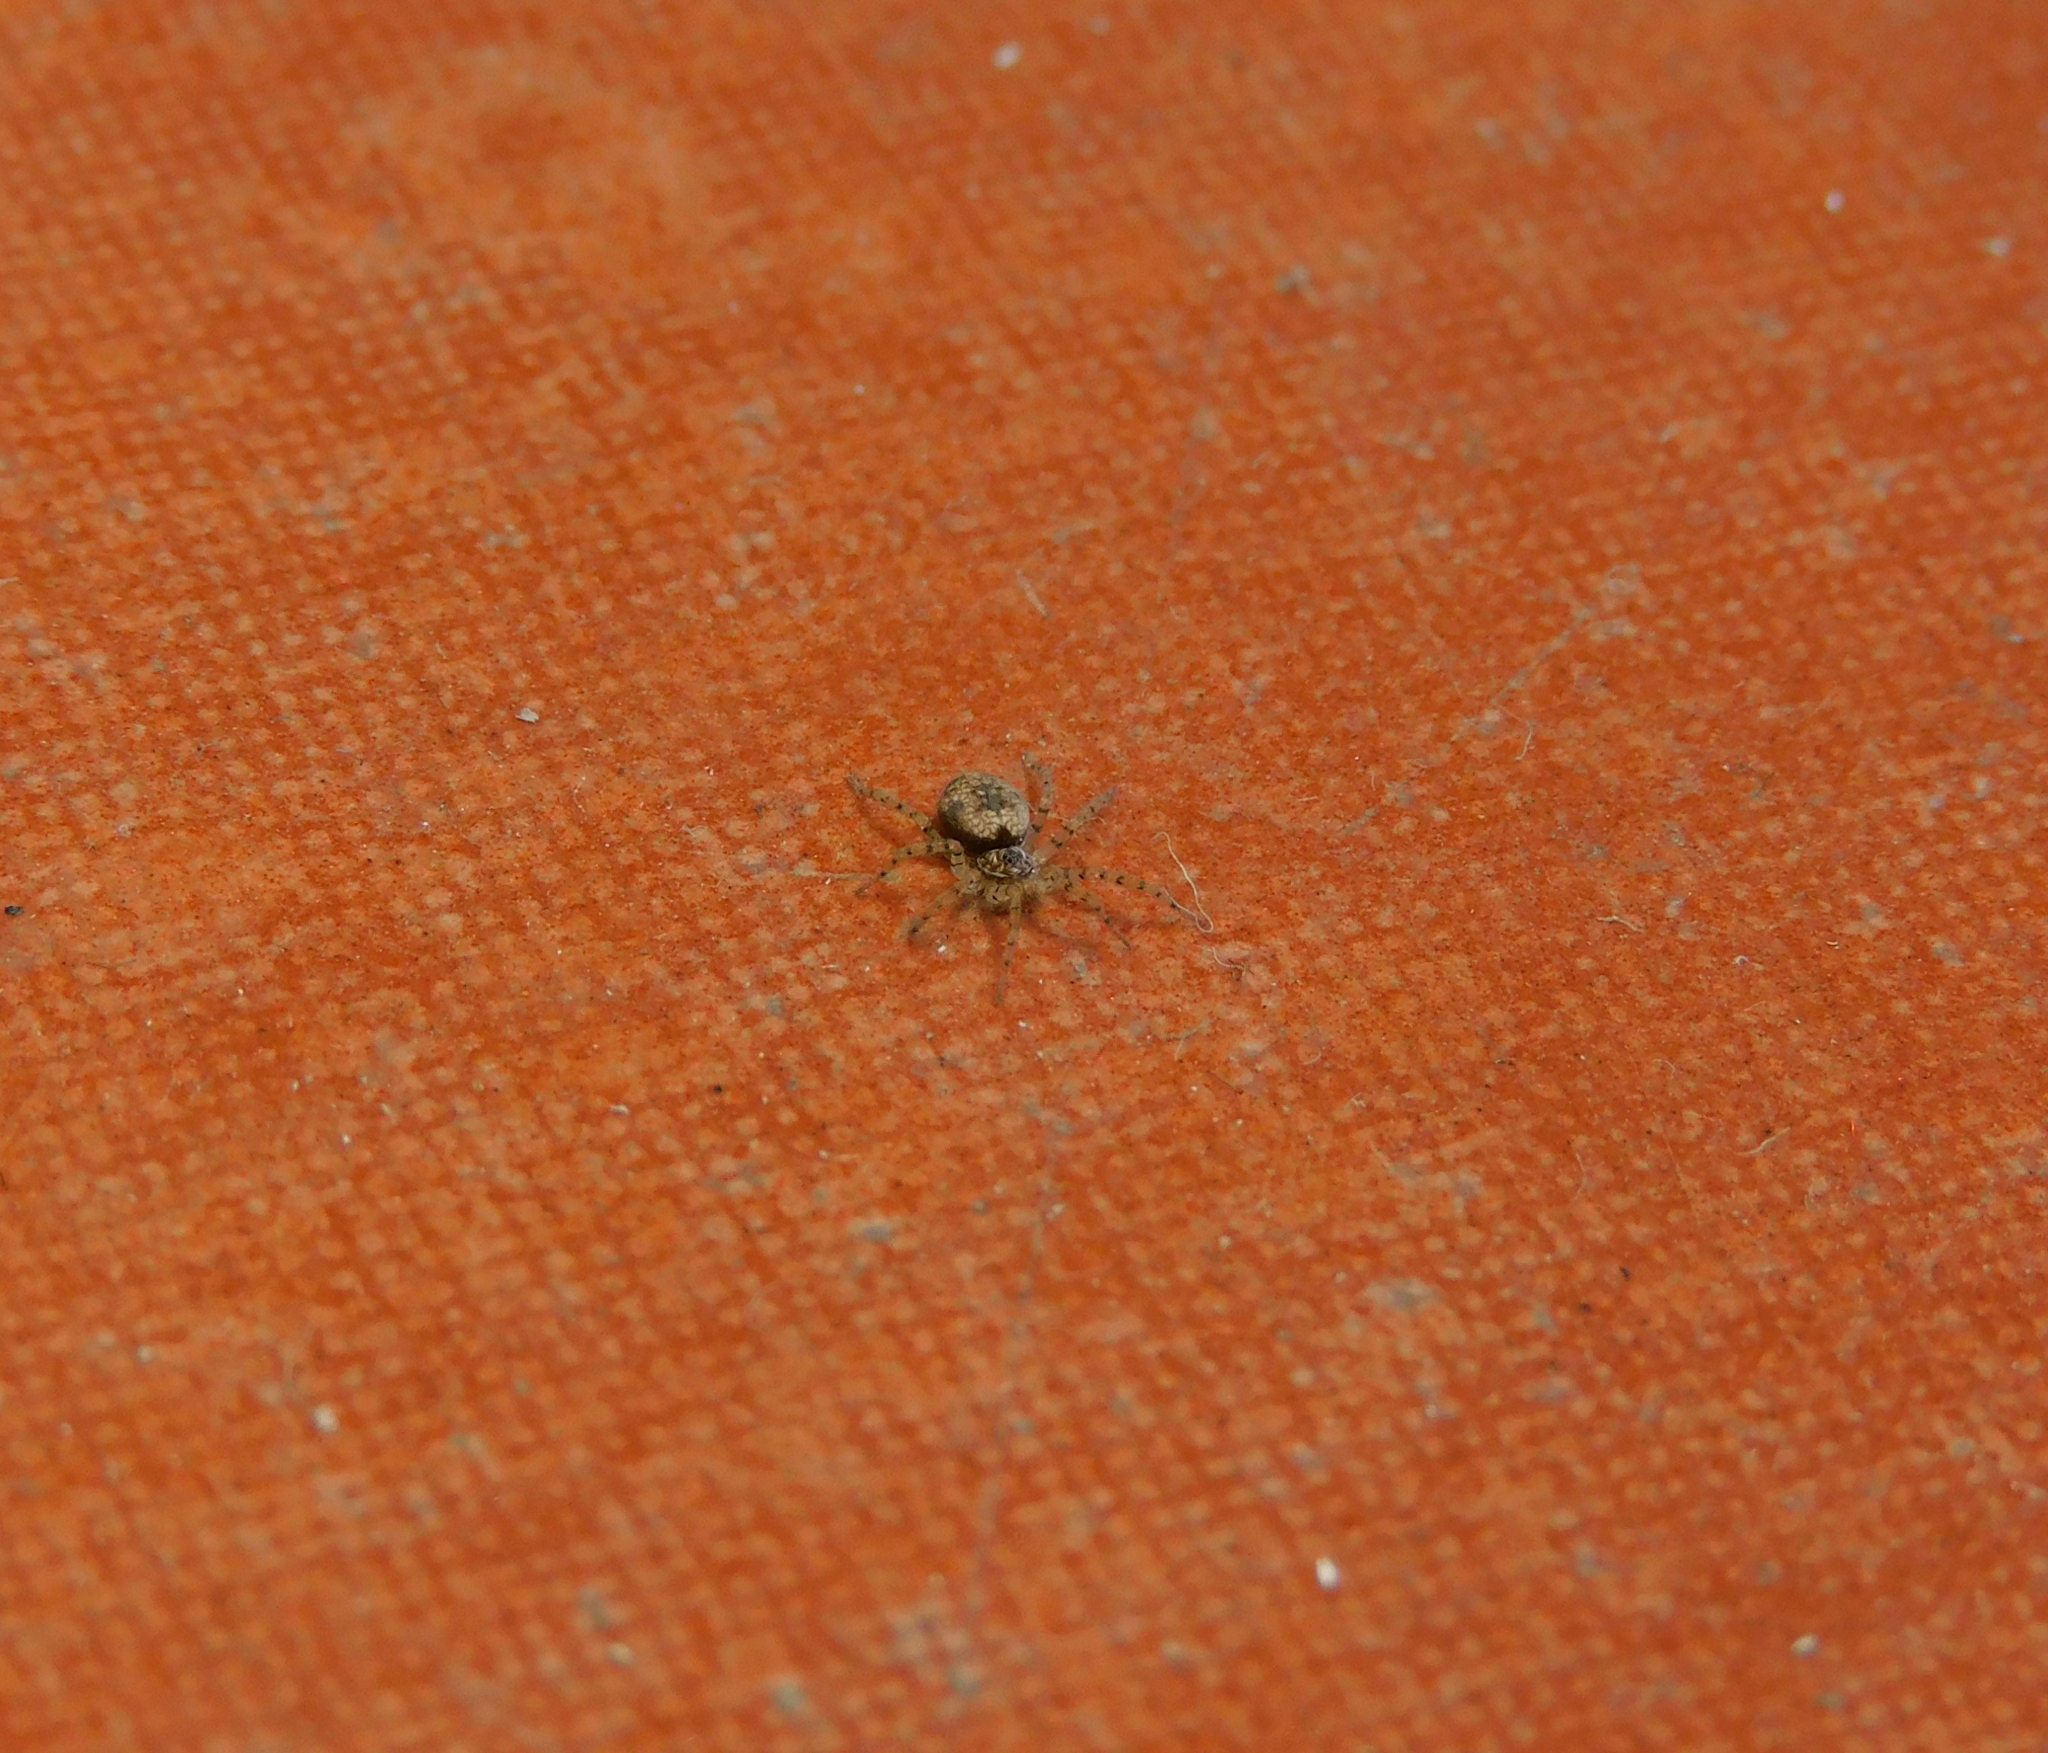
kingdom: Animalia
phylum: Arthropoda
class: Arachnida
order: Araneae
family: Oecobiidae
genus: Oecobius
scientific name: Oecobius navus
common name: Flatmesh weaver
